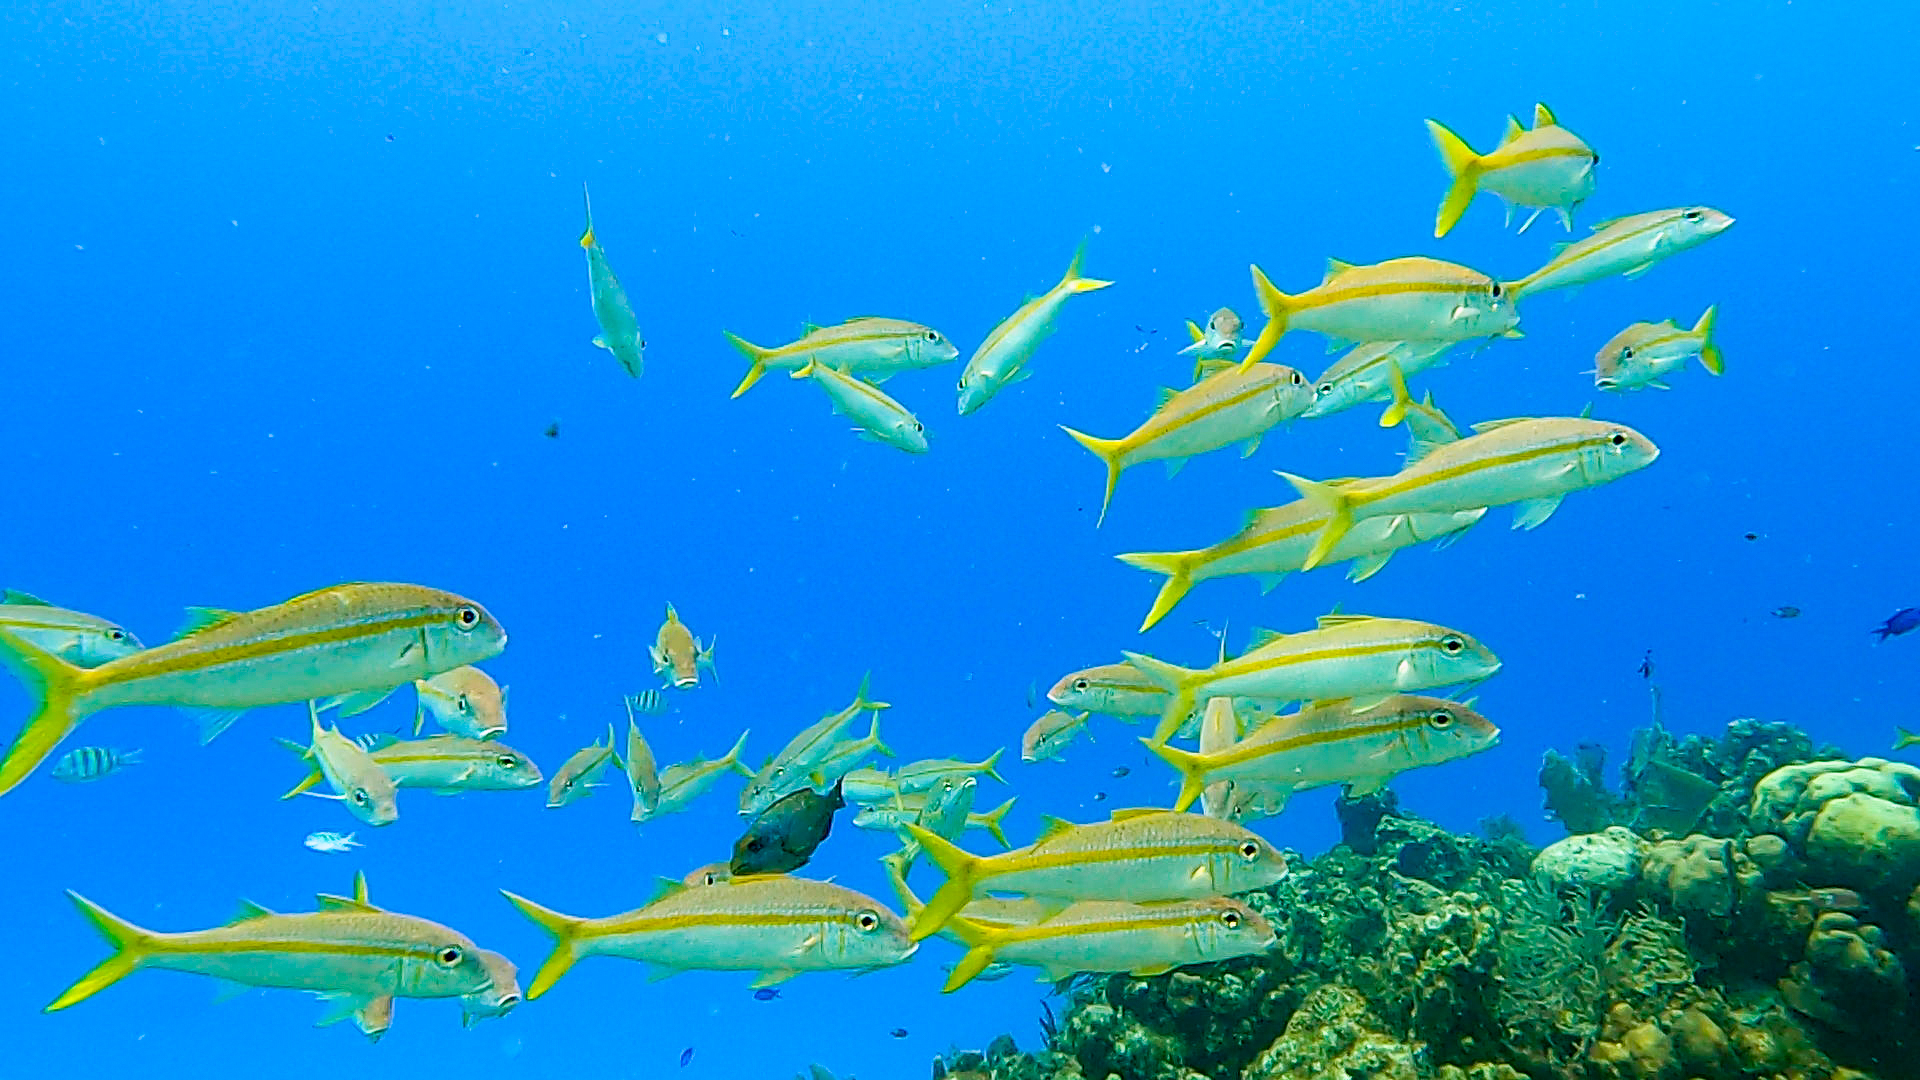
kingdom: Animalia
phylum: Chordata
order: Perciformes
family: Mullidae
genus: Mulloidichthys
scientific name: Mulloidichthys martinicus
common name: Yellow goatfish
